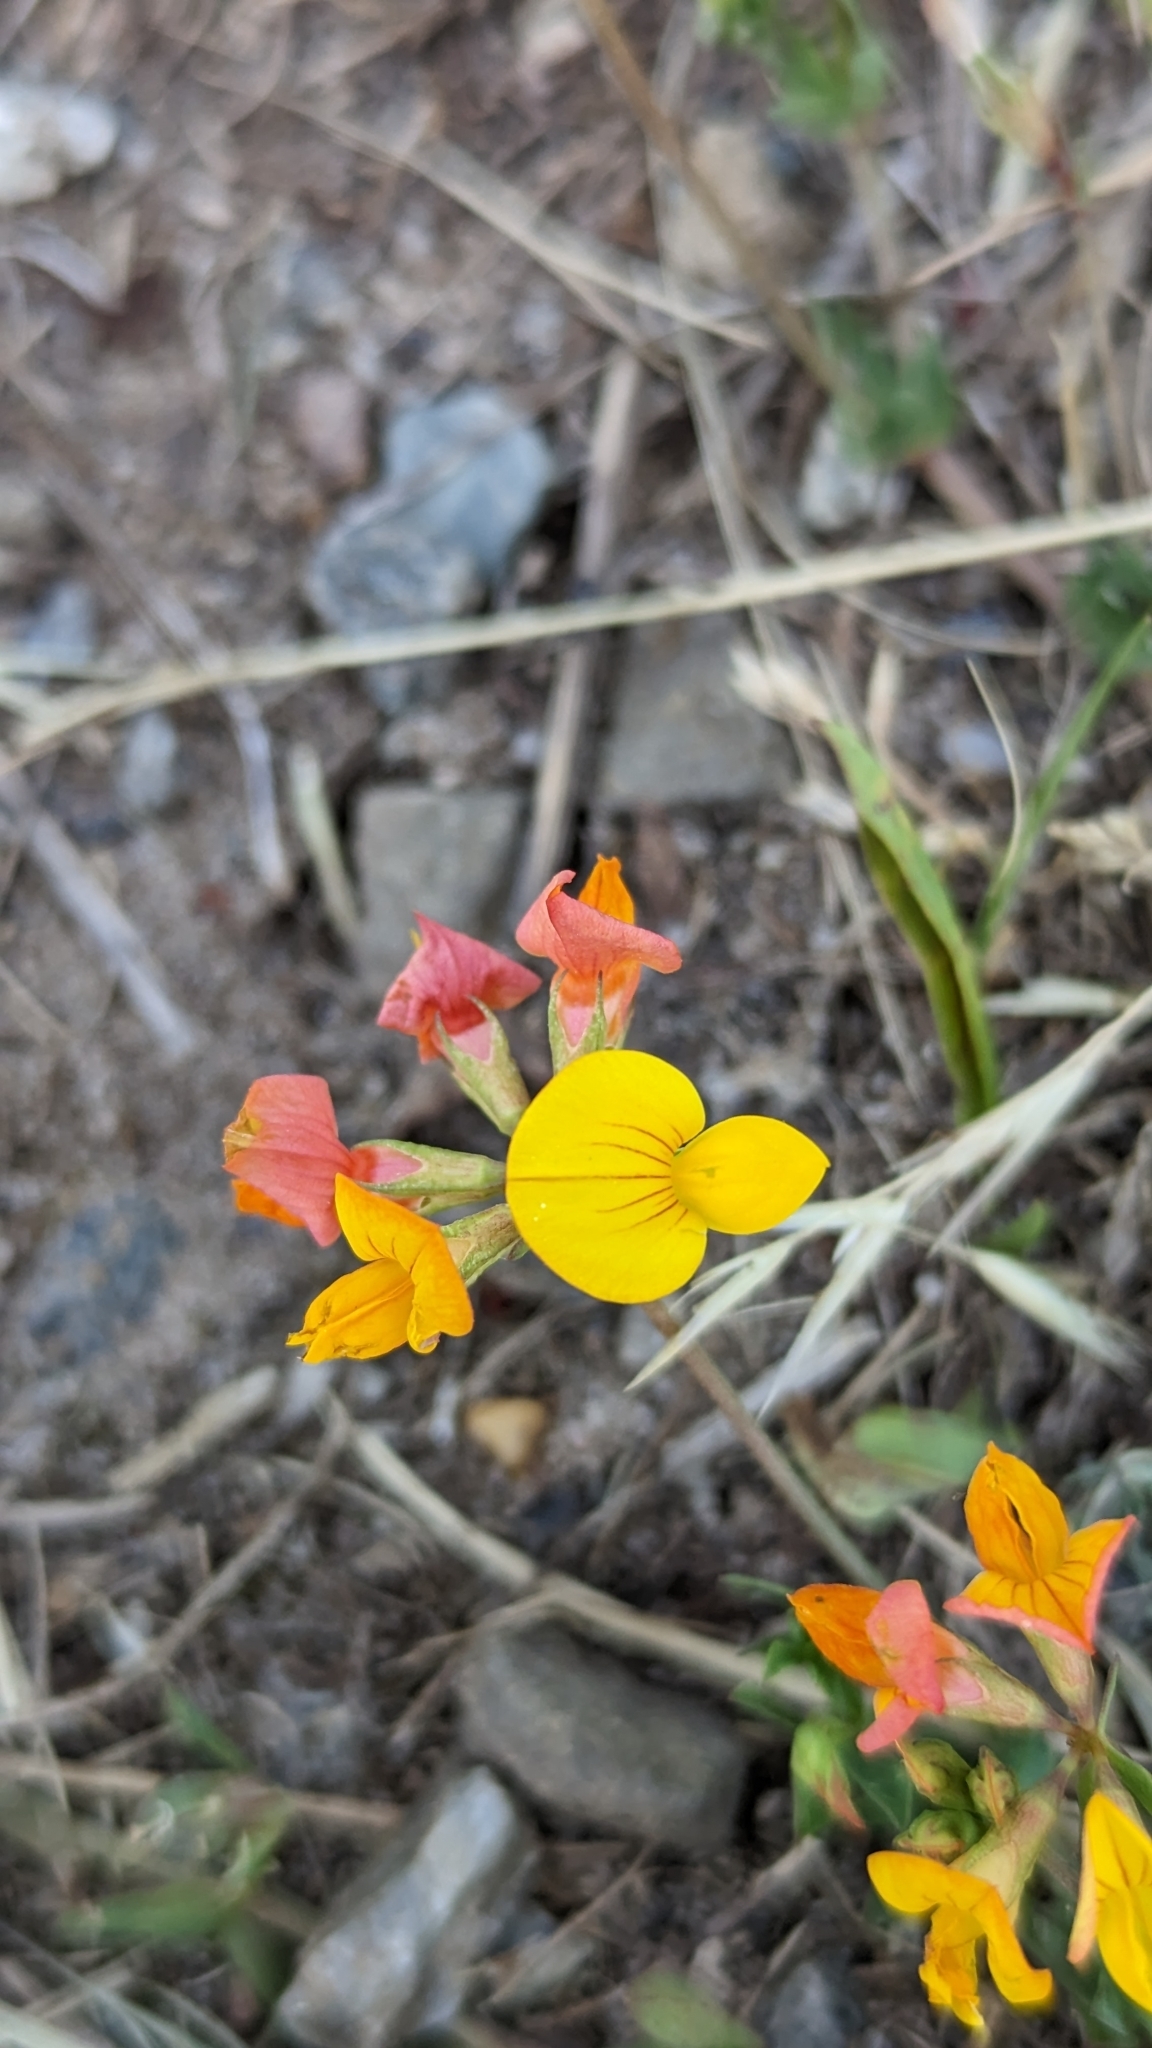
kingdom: Plantae
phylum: Tracheophyta
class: Magnoliopsida
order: Fabales
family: Fabaceae
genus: Lotus
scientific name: Lotus corniculatus
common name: Common bird's-foot-trefoil
